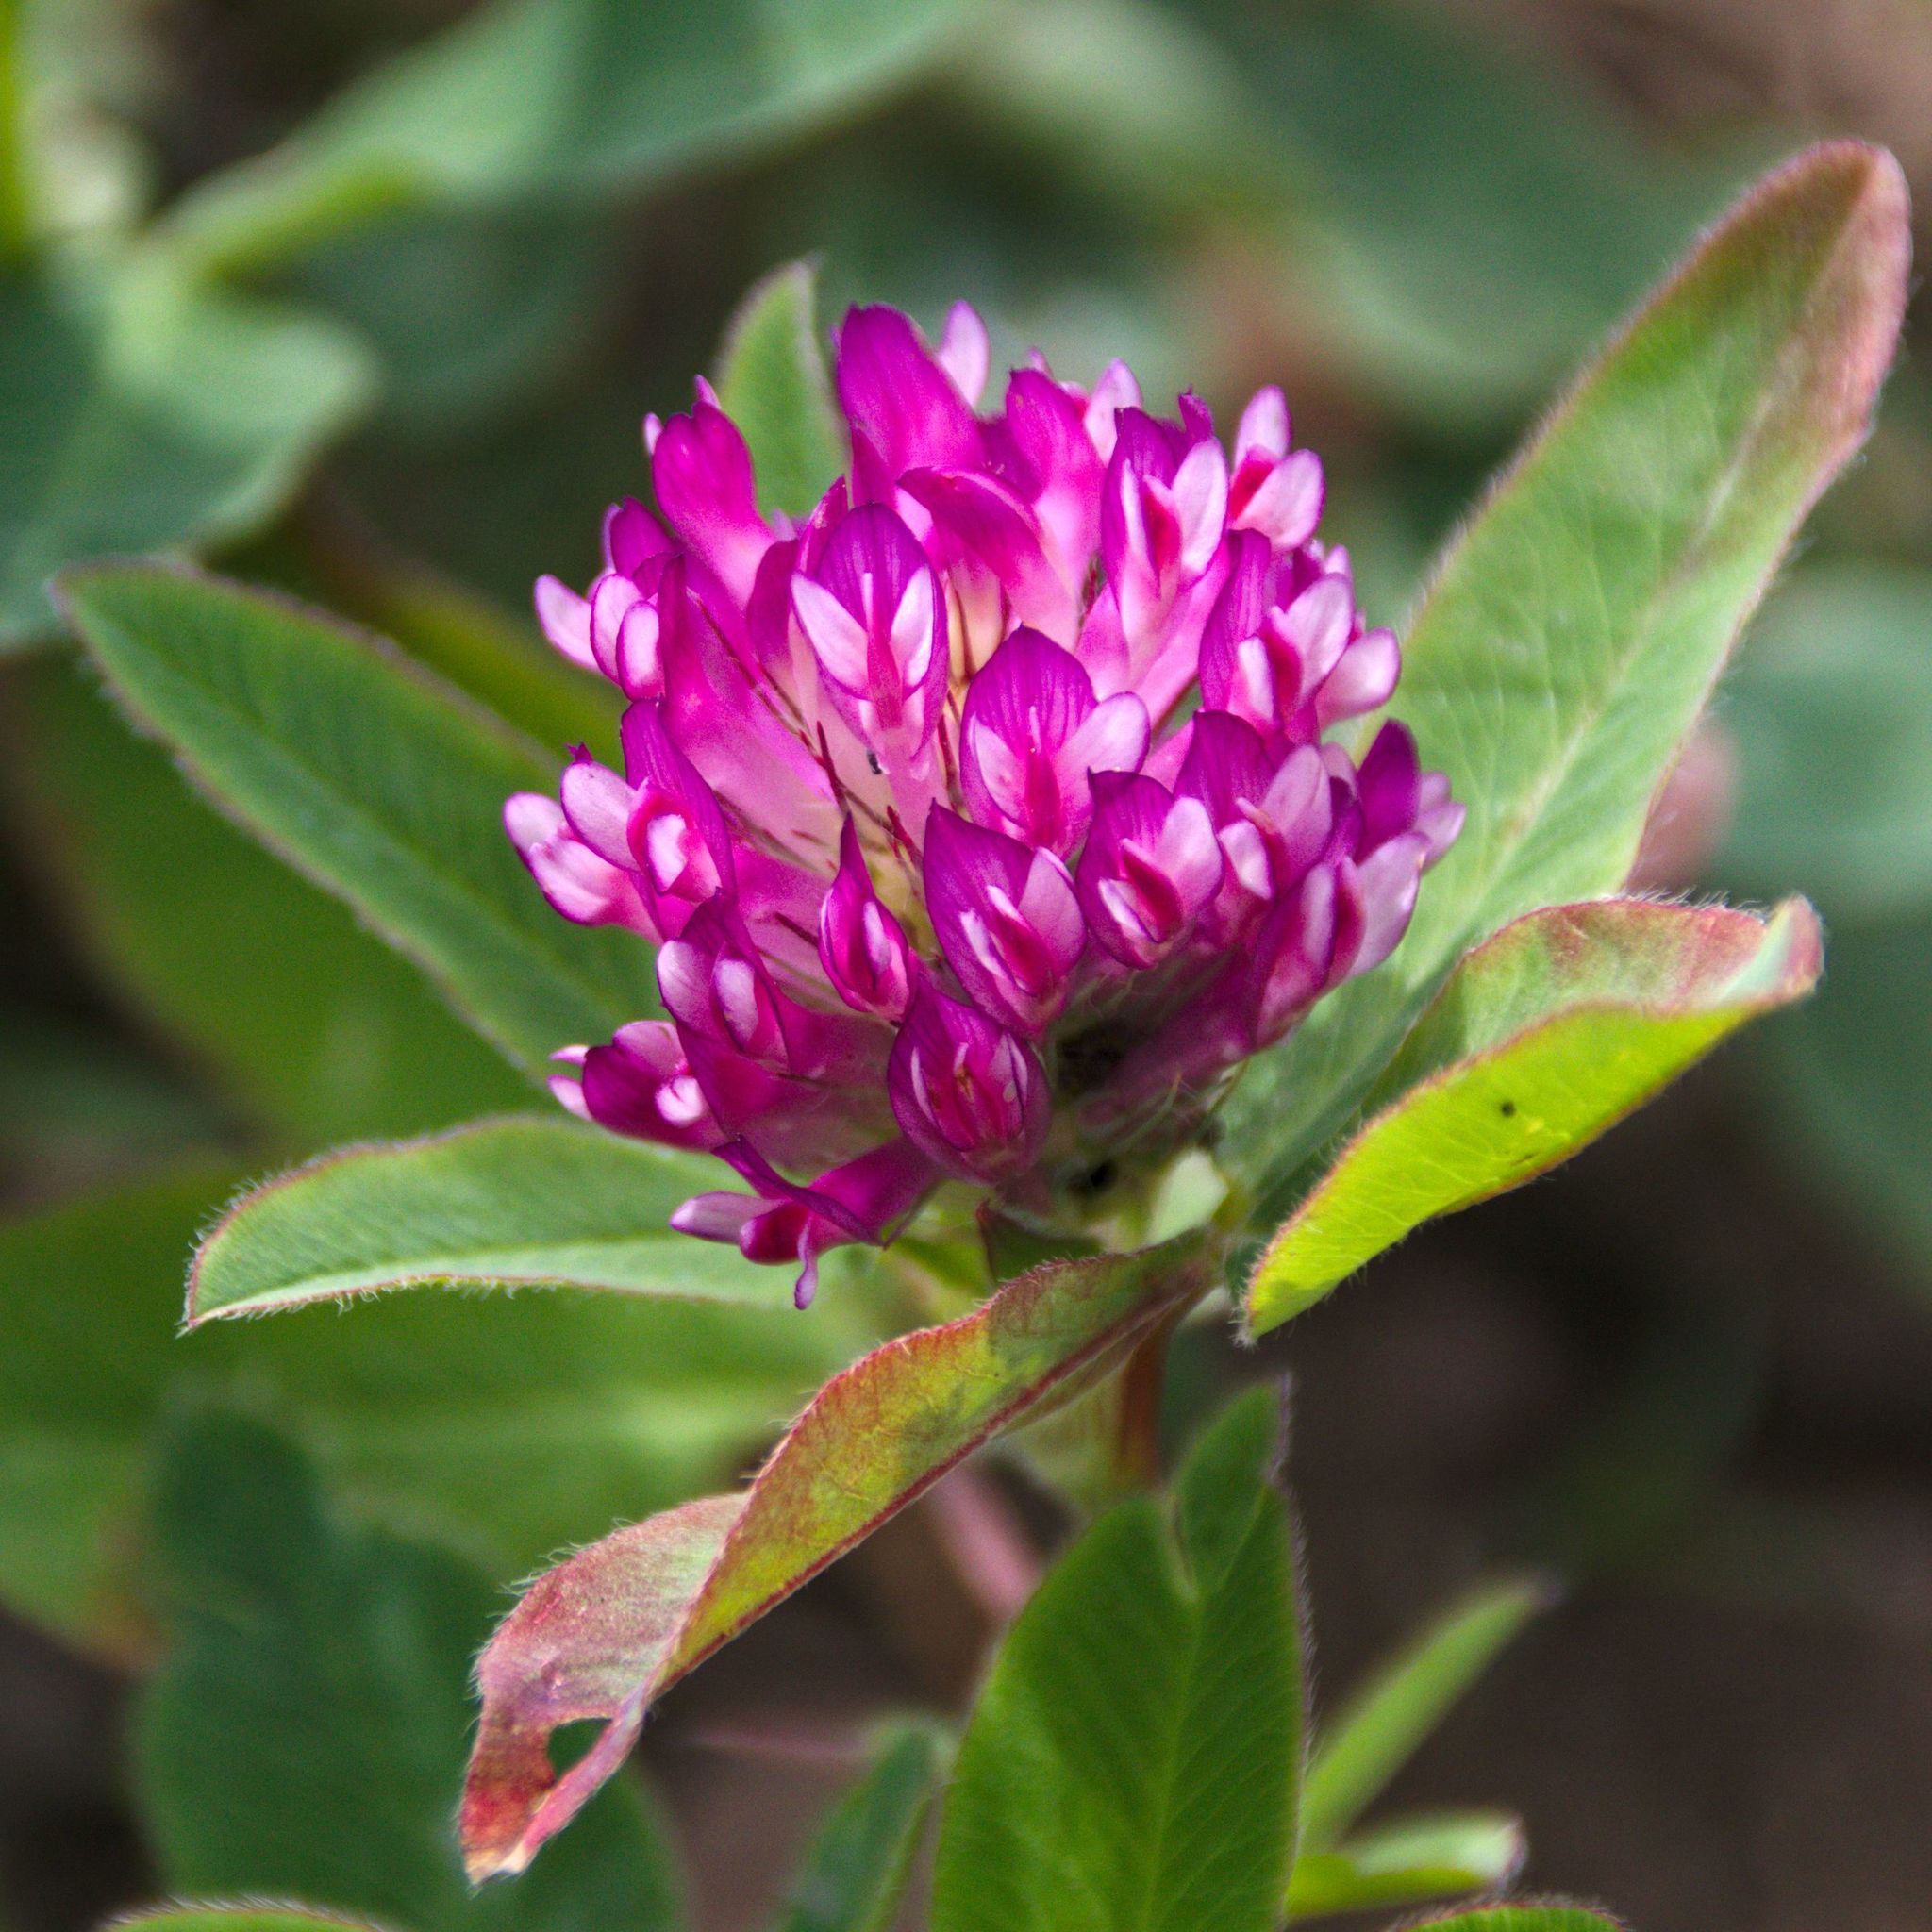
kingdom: Plantae
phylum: Tracheophyta
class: Magnoliopsida
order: Fabales
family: Fabaceae
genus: Trifolium
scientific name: Trifolium medium
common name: Zigzag clover
